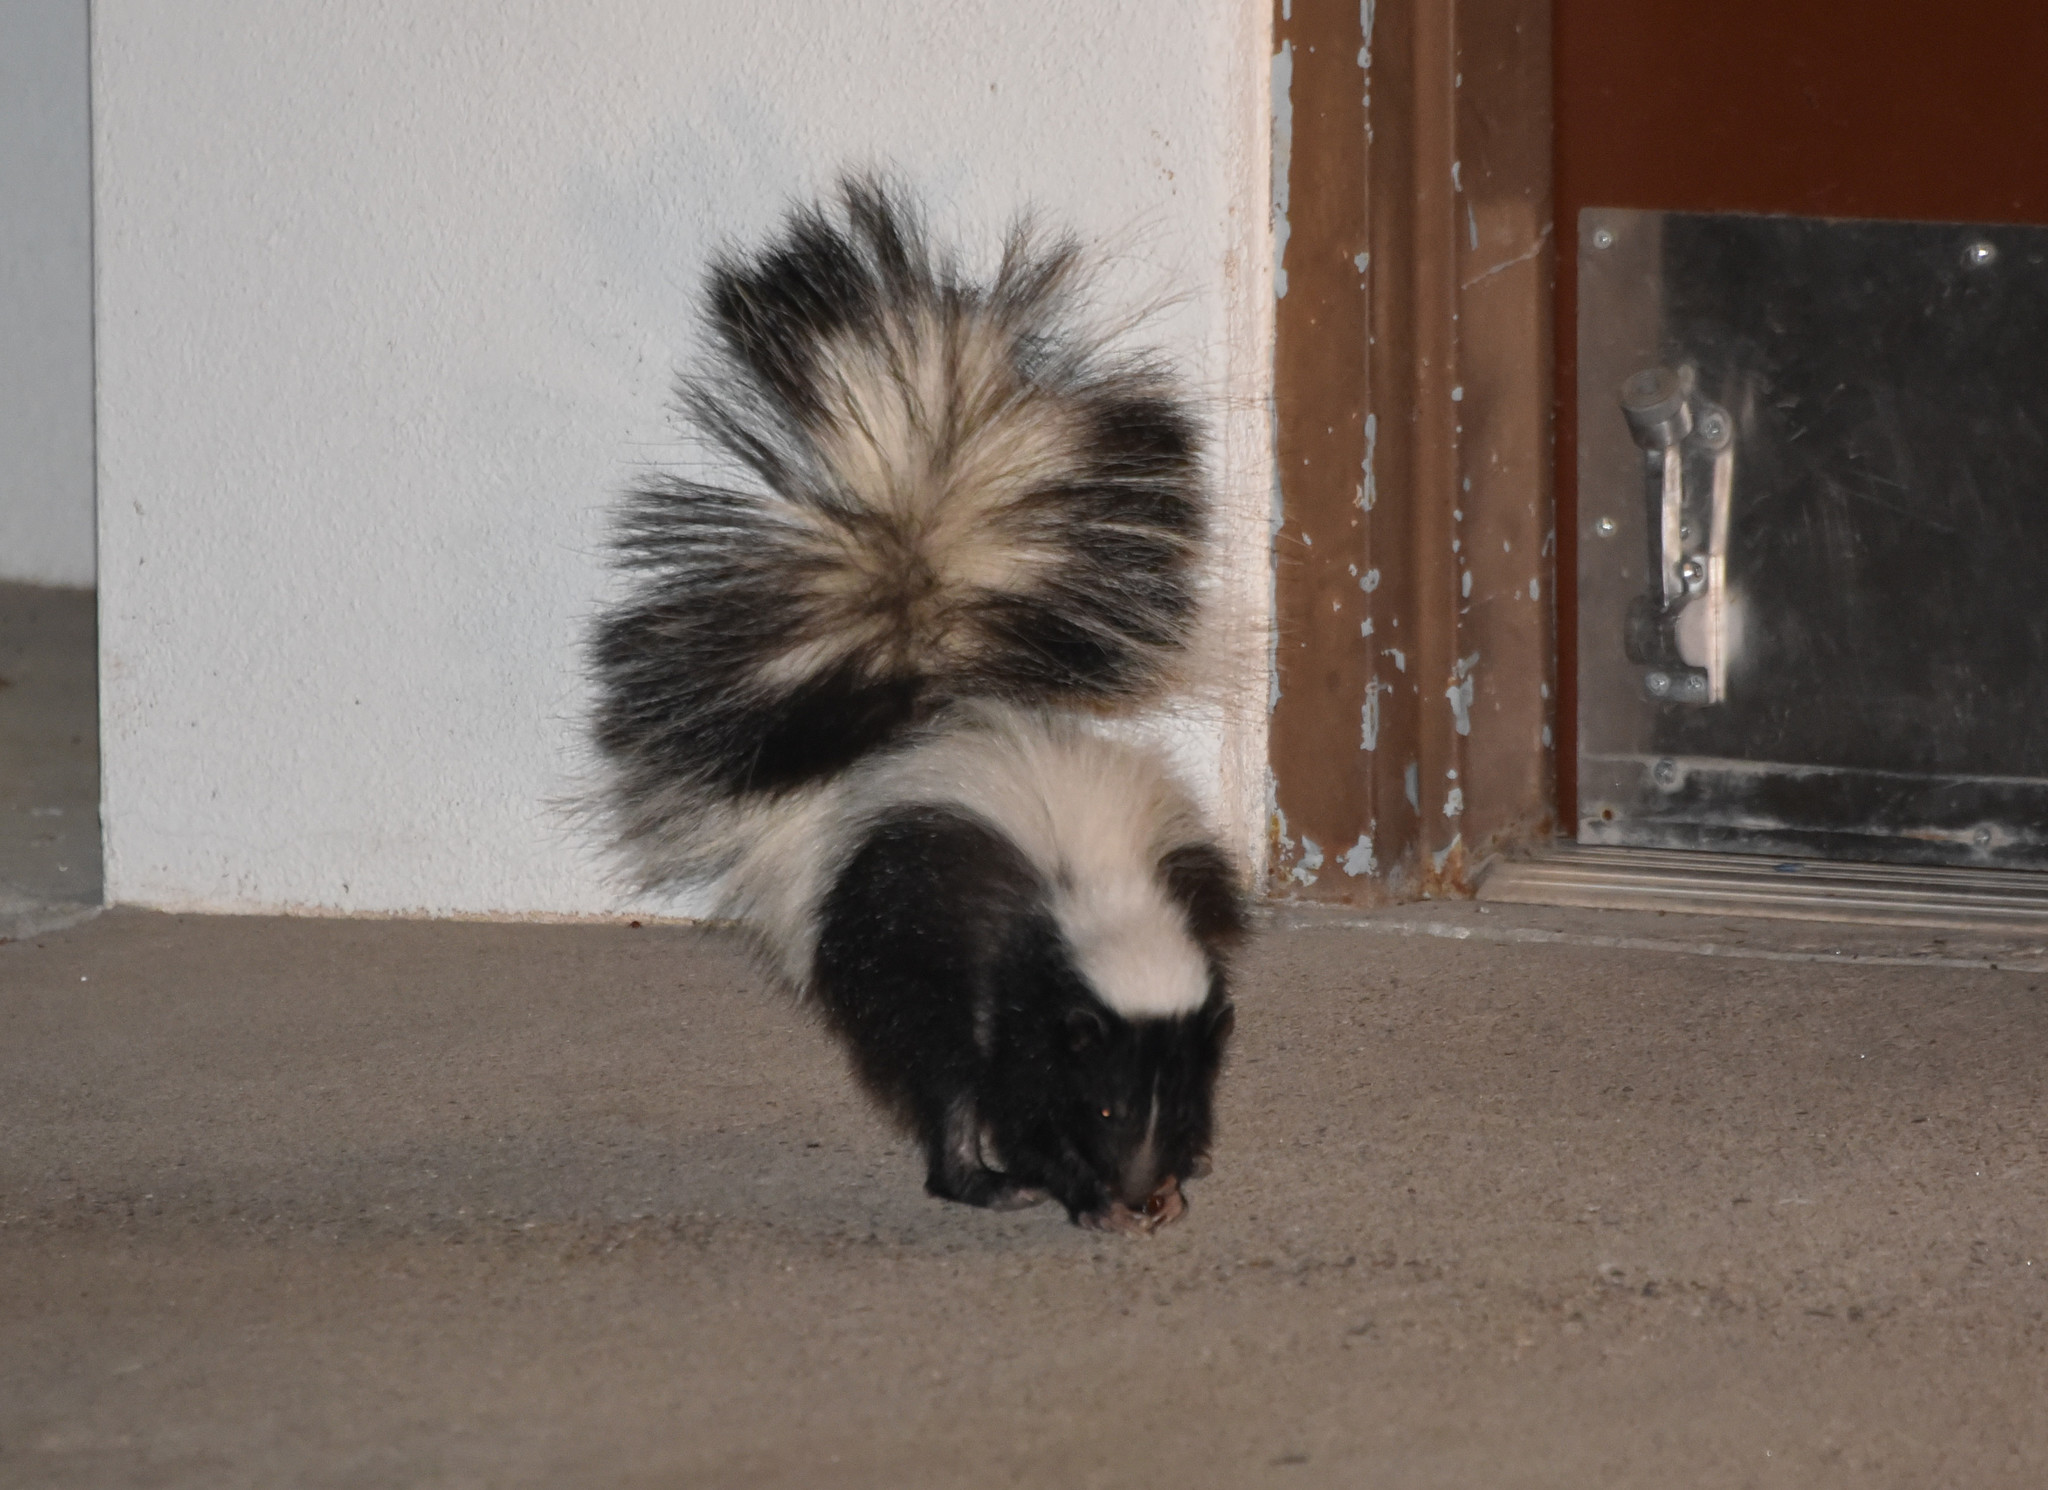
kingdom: Animalia
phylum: Chordata
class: Mammalia
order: Carnivora
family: Mephitidae
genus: Mephitis
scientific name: Mephitis mephitis
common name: Striped skunk
